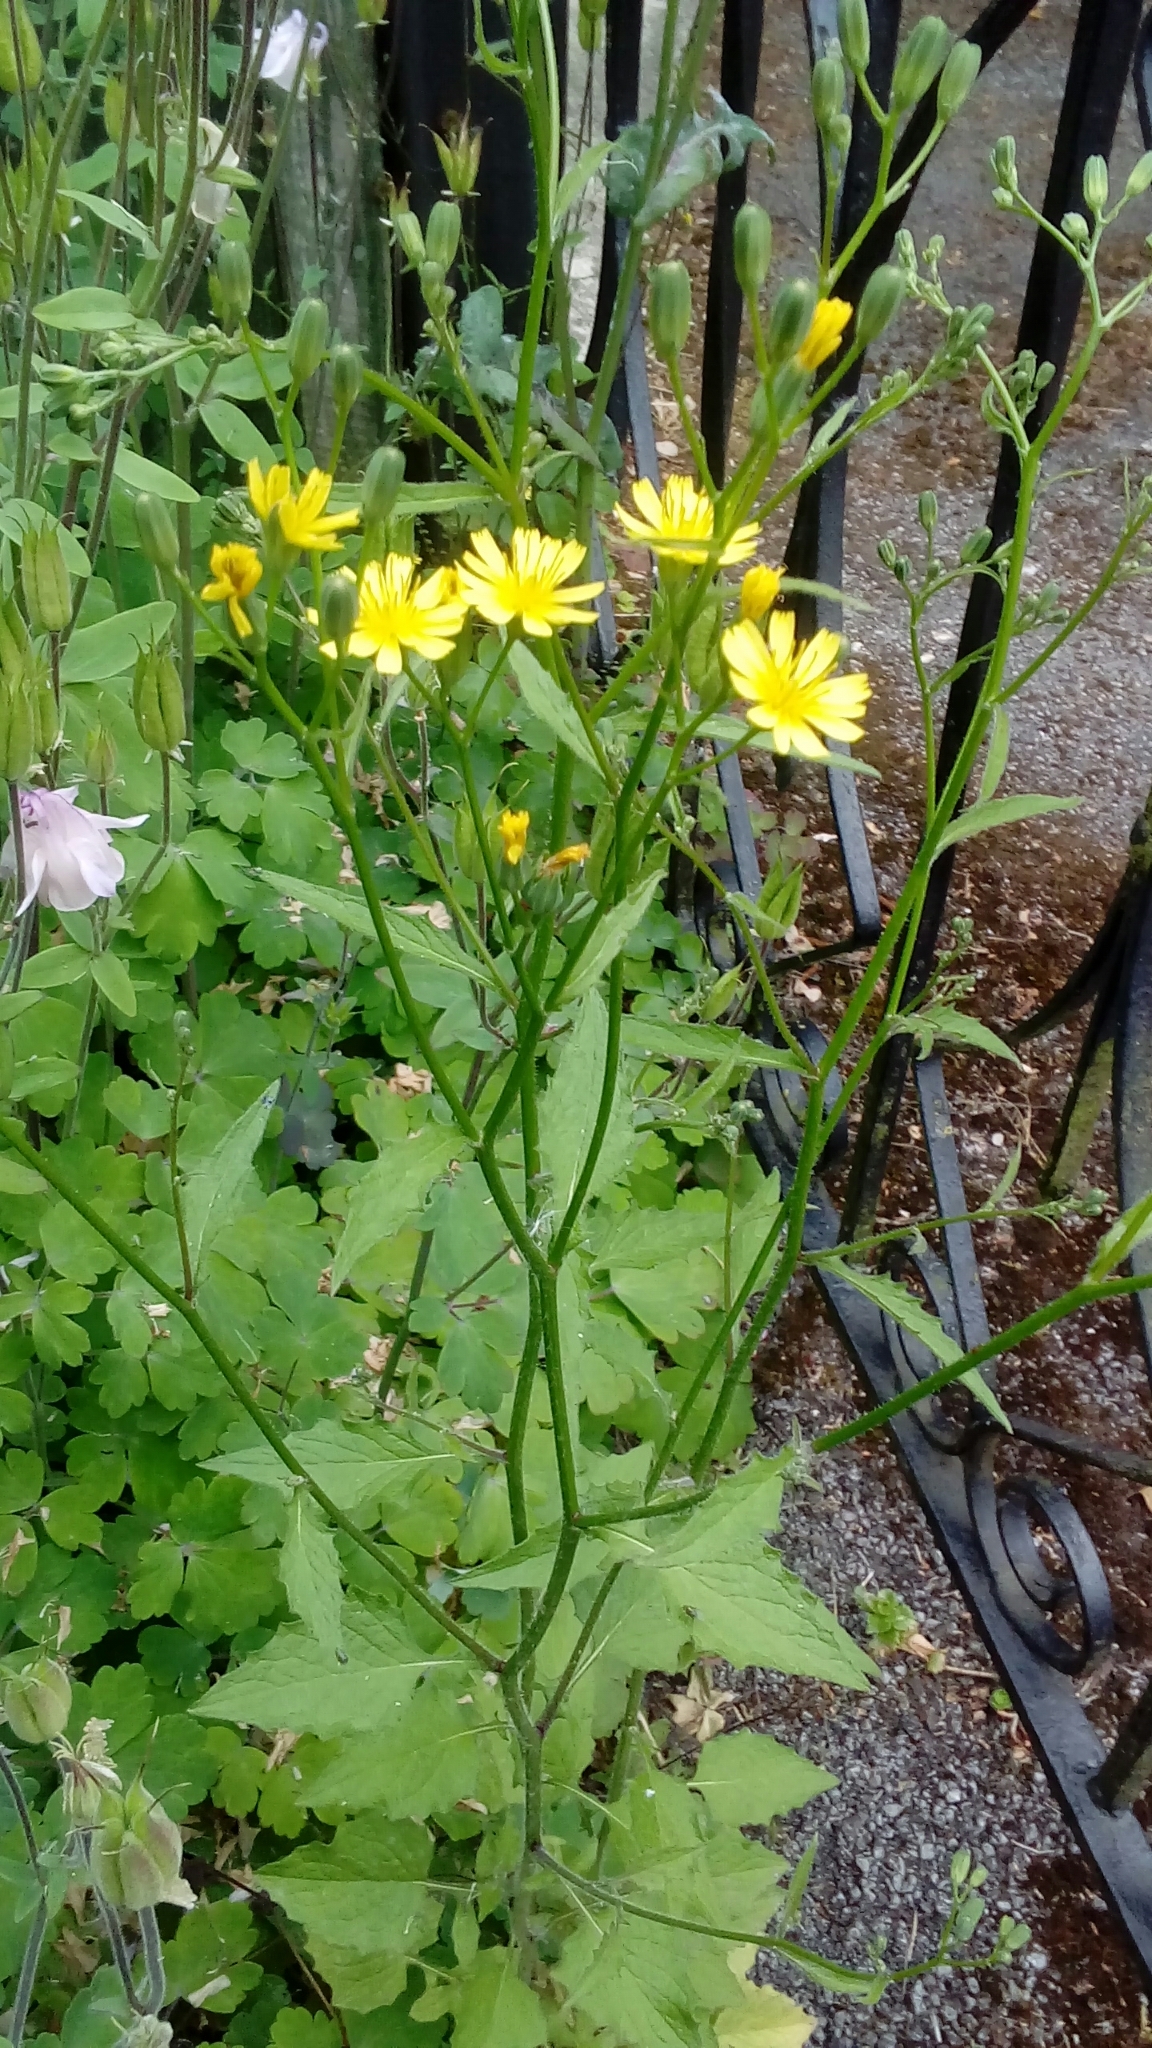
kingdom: Plantae
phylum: Tracheophyta
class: Magnoliopsida
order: Asterales
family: Asteraceae
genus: Lapsana
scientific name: Lapsana communis
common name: Nipplewort
